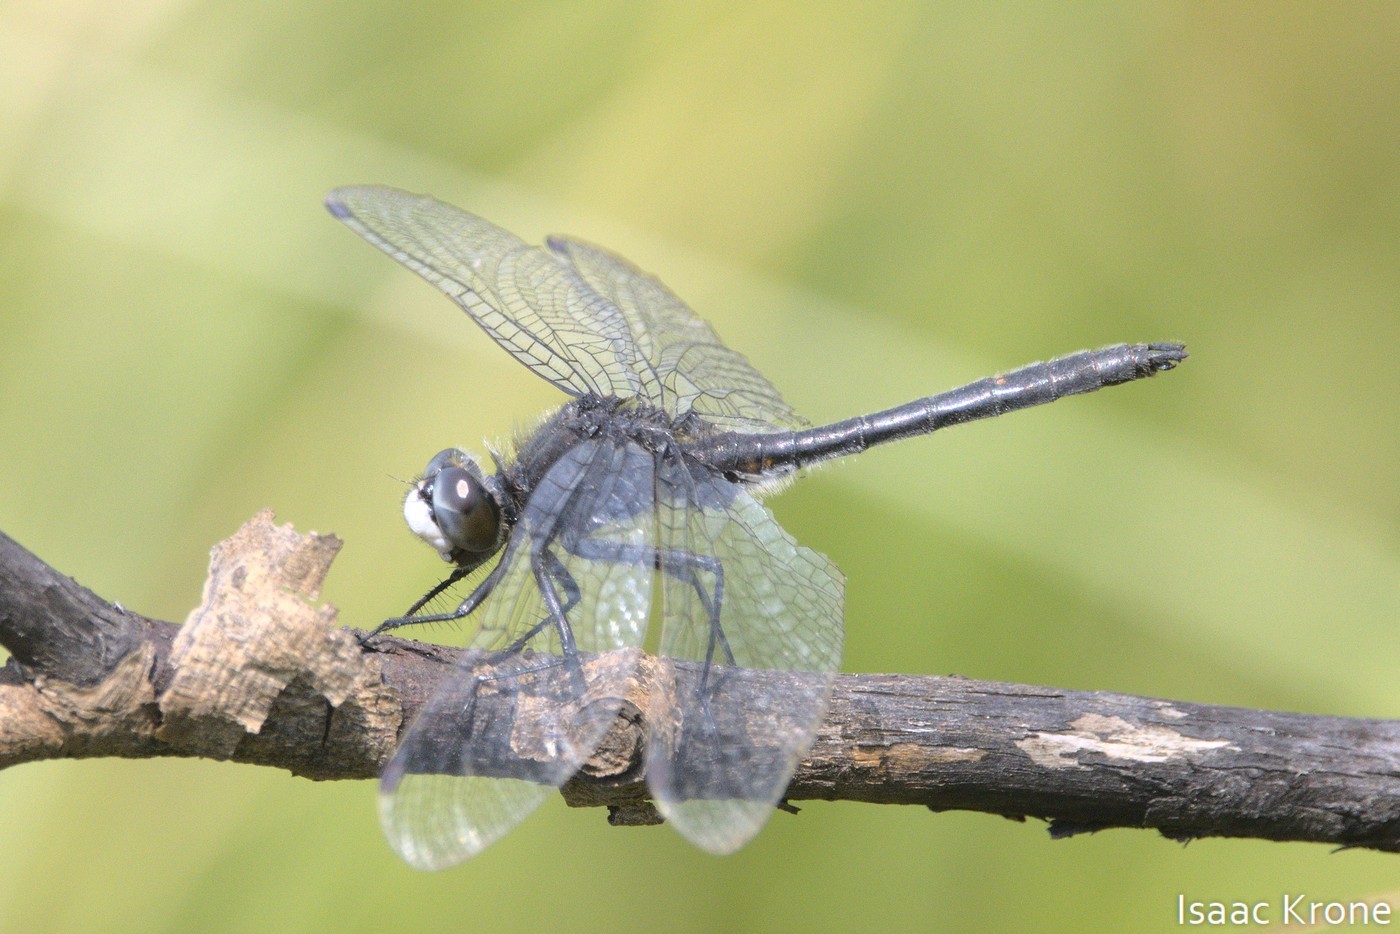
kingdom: Animalia
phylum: Arthropoda
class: Insecta
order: Odonata
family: Libellulidae
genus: Leucorrhinia
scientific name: Leucorrhinia intacta
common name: Dot-tailed whiteface
